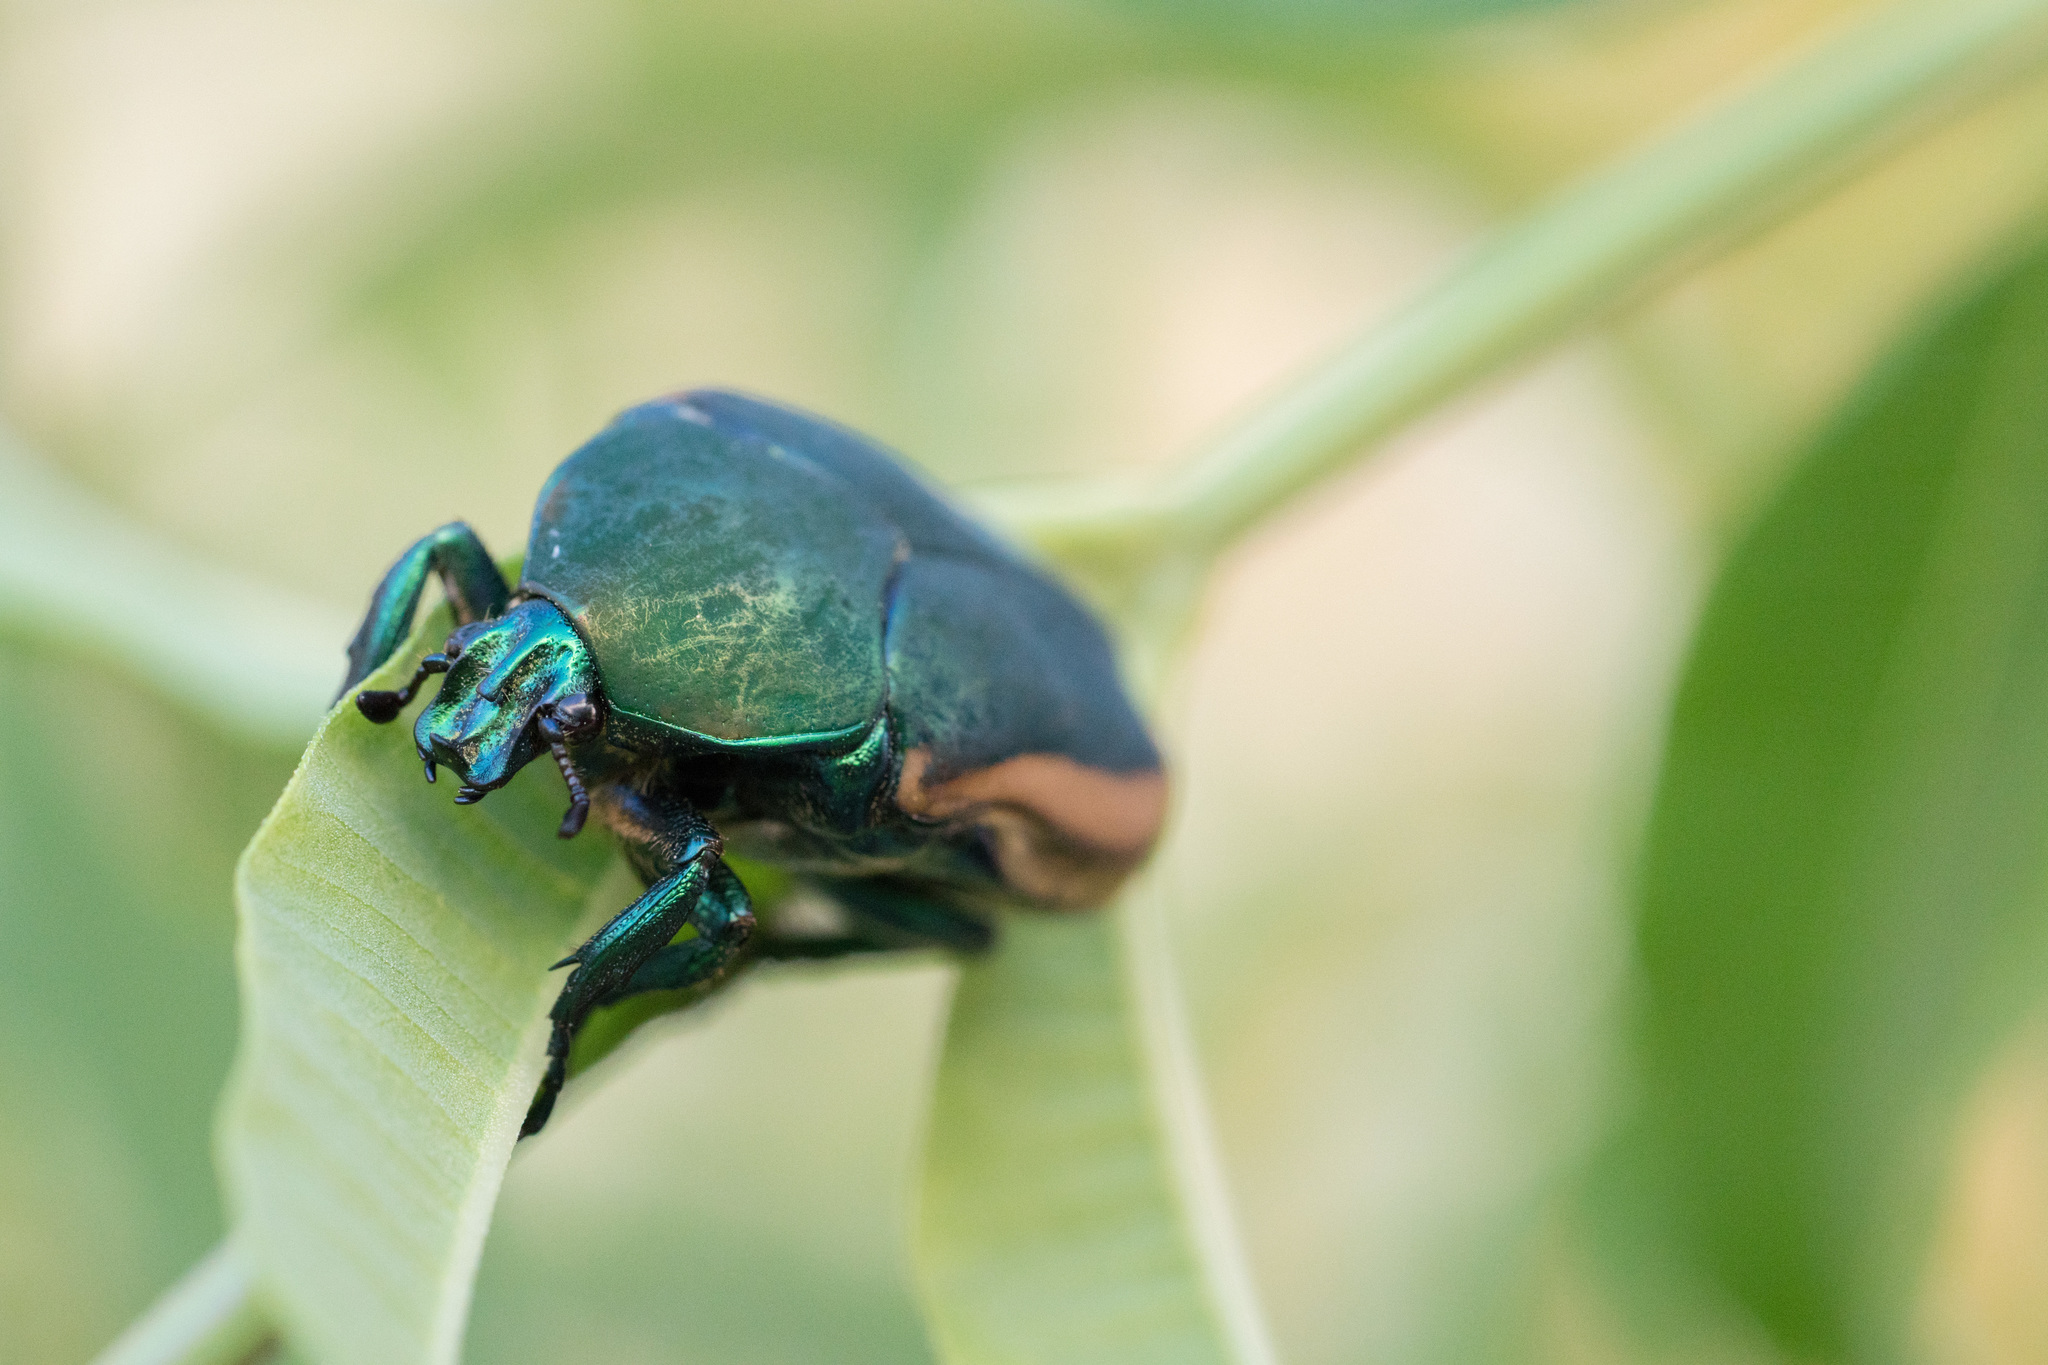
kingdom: Animalia
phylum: Arthropoda
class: Insecta
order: Coleoptera
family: Scarabaeidae
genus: Cotinis
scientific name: Cotinis mutabilis
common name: Figeater beetle
